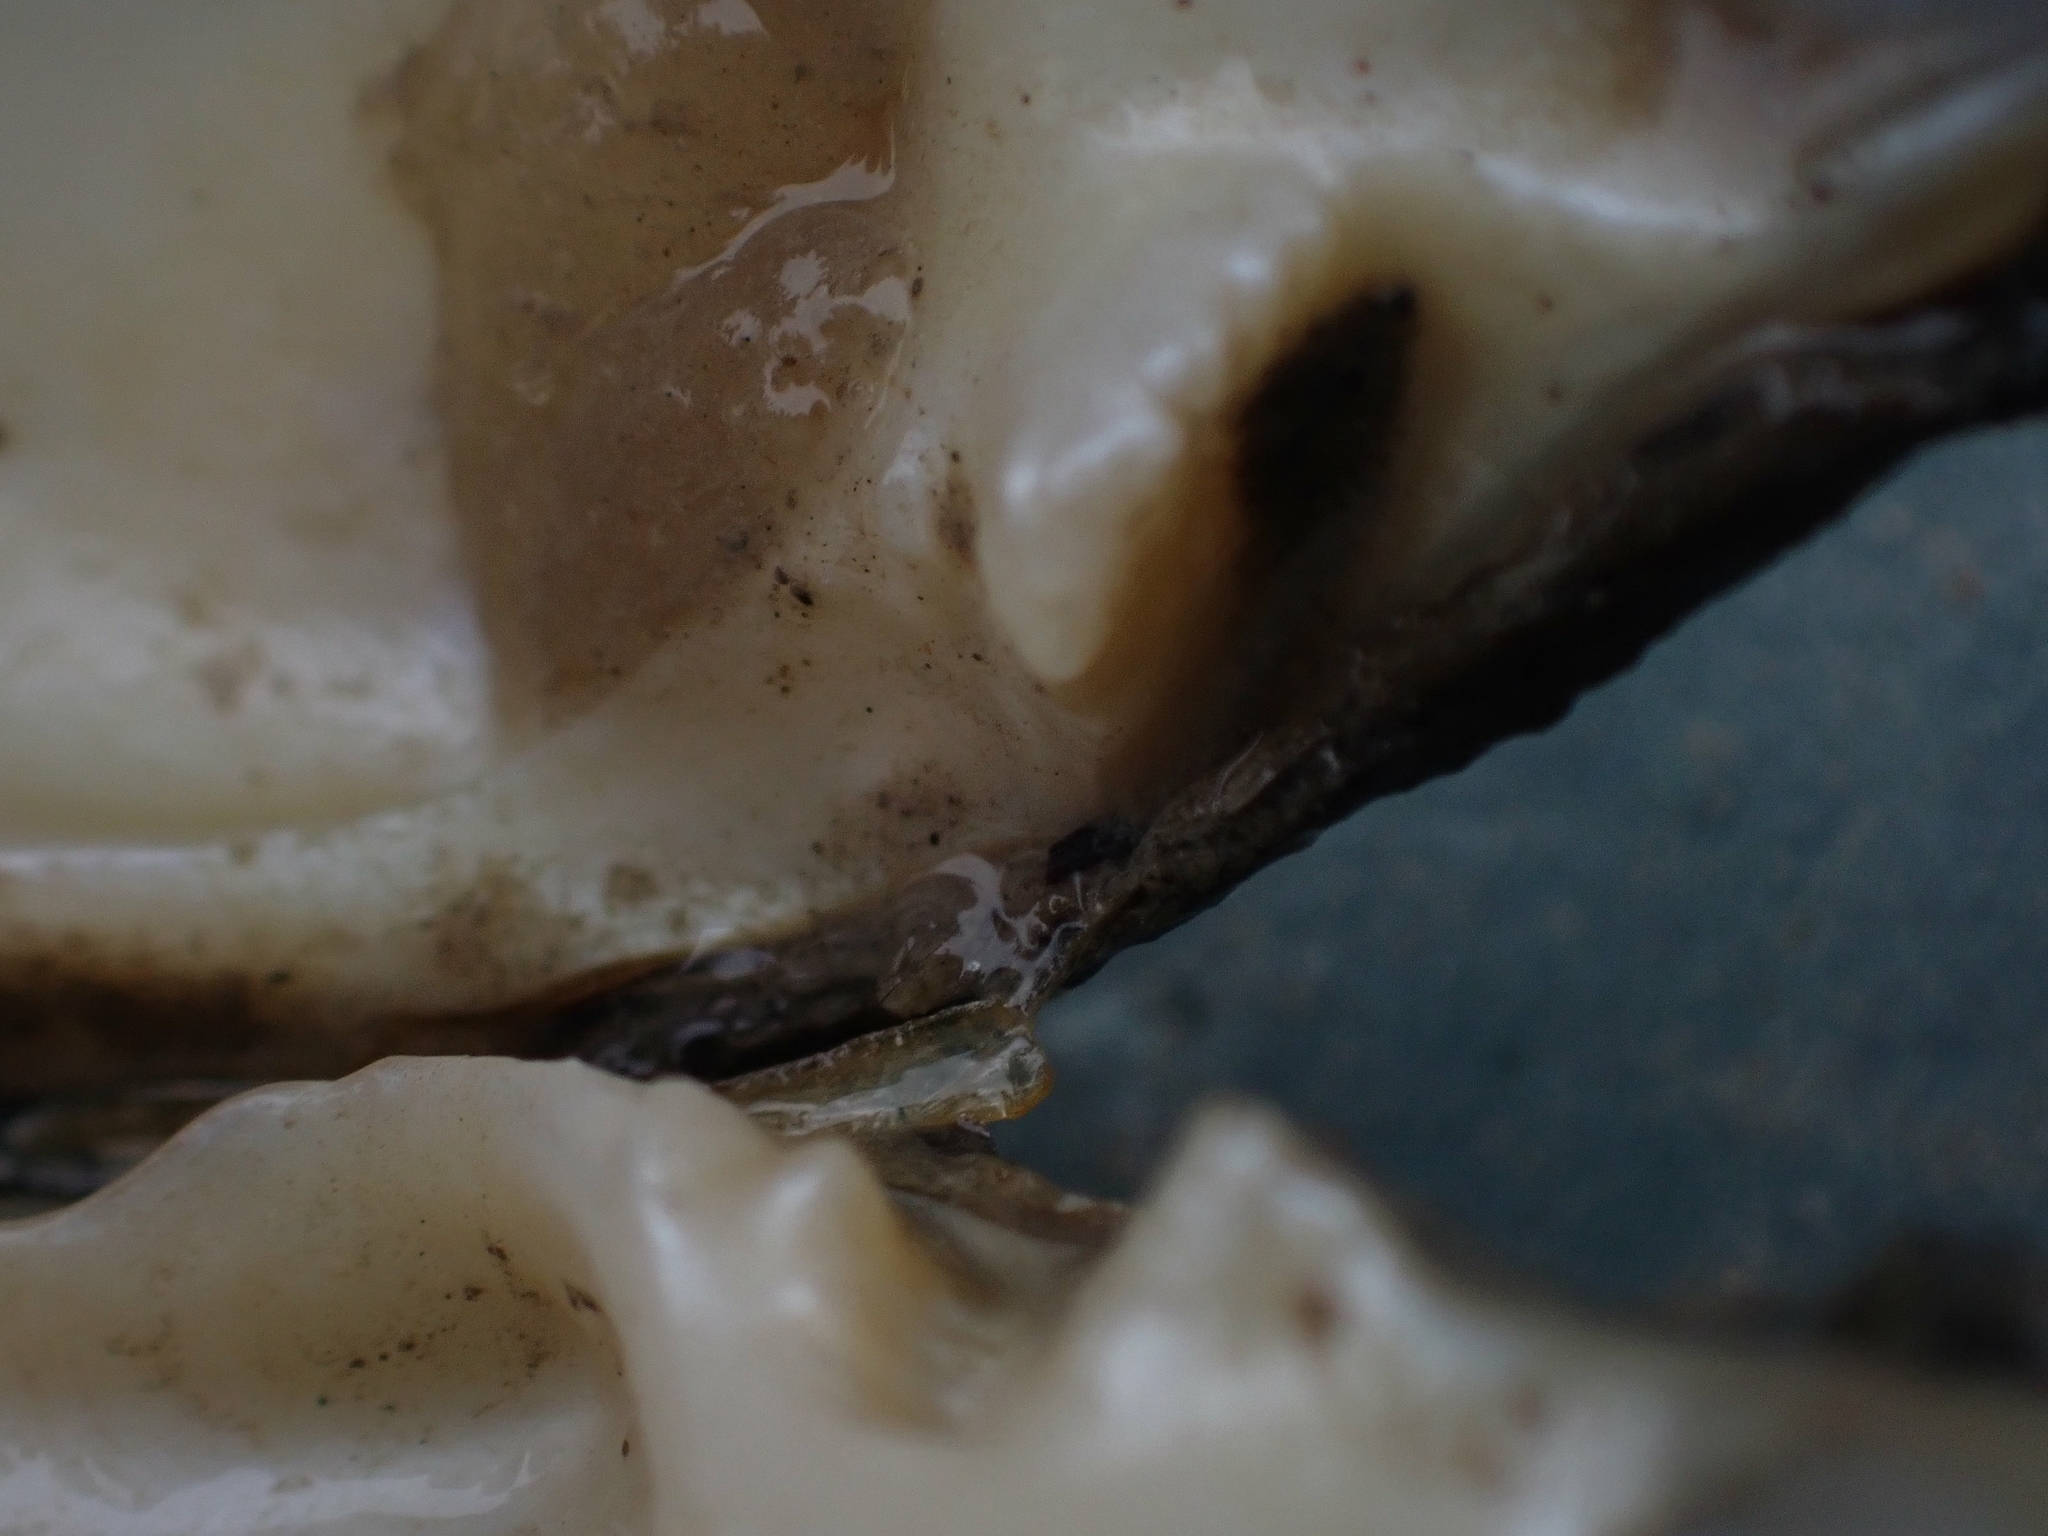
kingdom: Animalia
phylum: Mollusca
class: Bivalvia
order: Unionida
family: Unionidae
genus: Lasmigona
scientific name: Lasmigona complanata
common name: White heelsplitter
